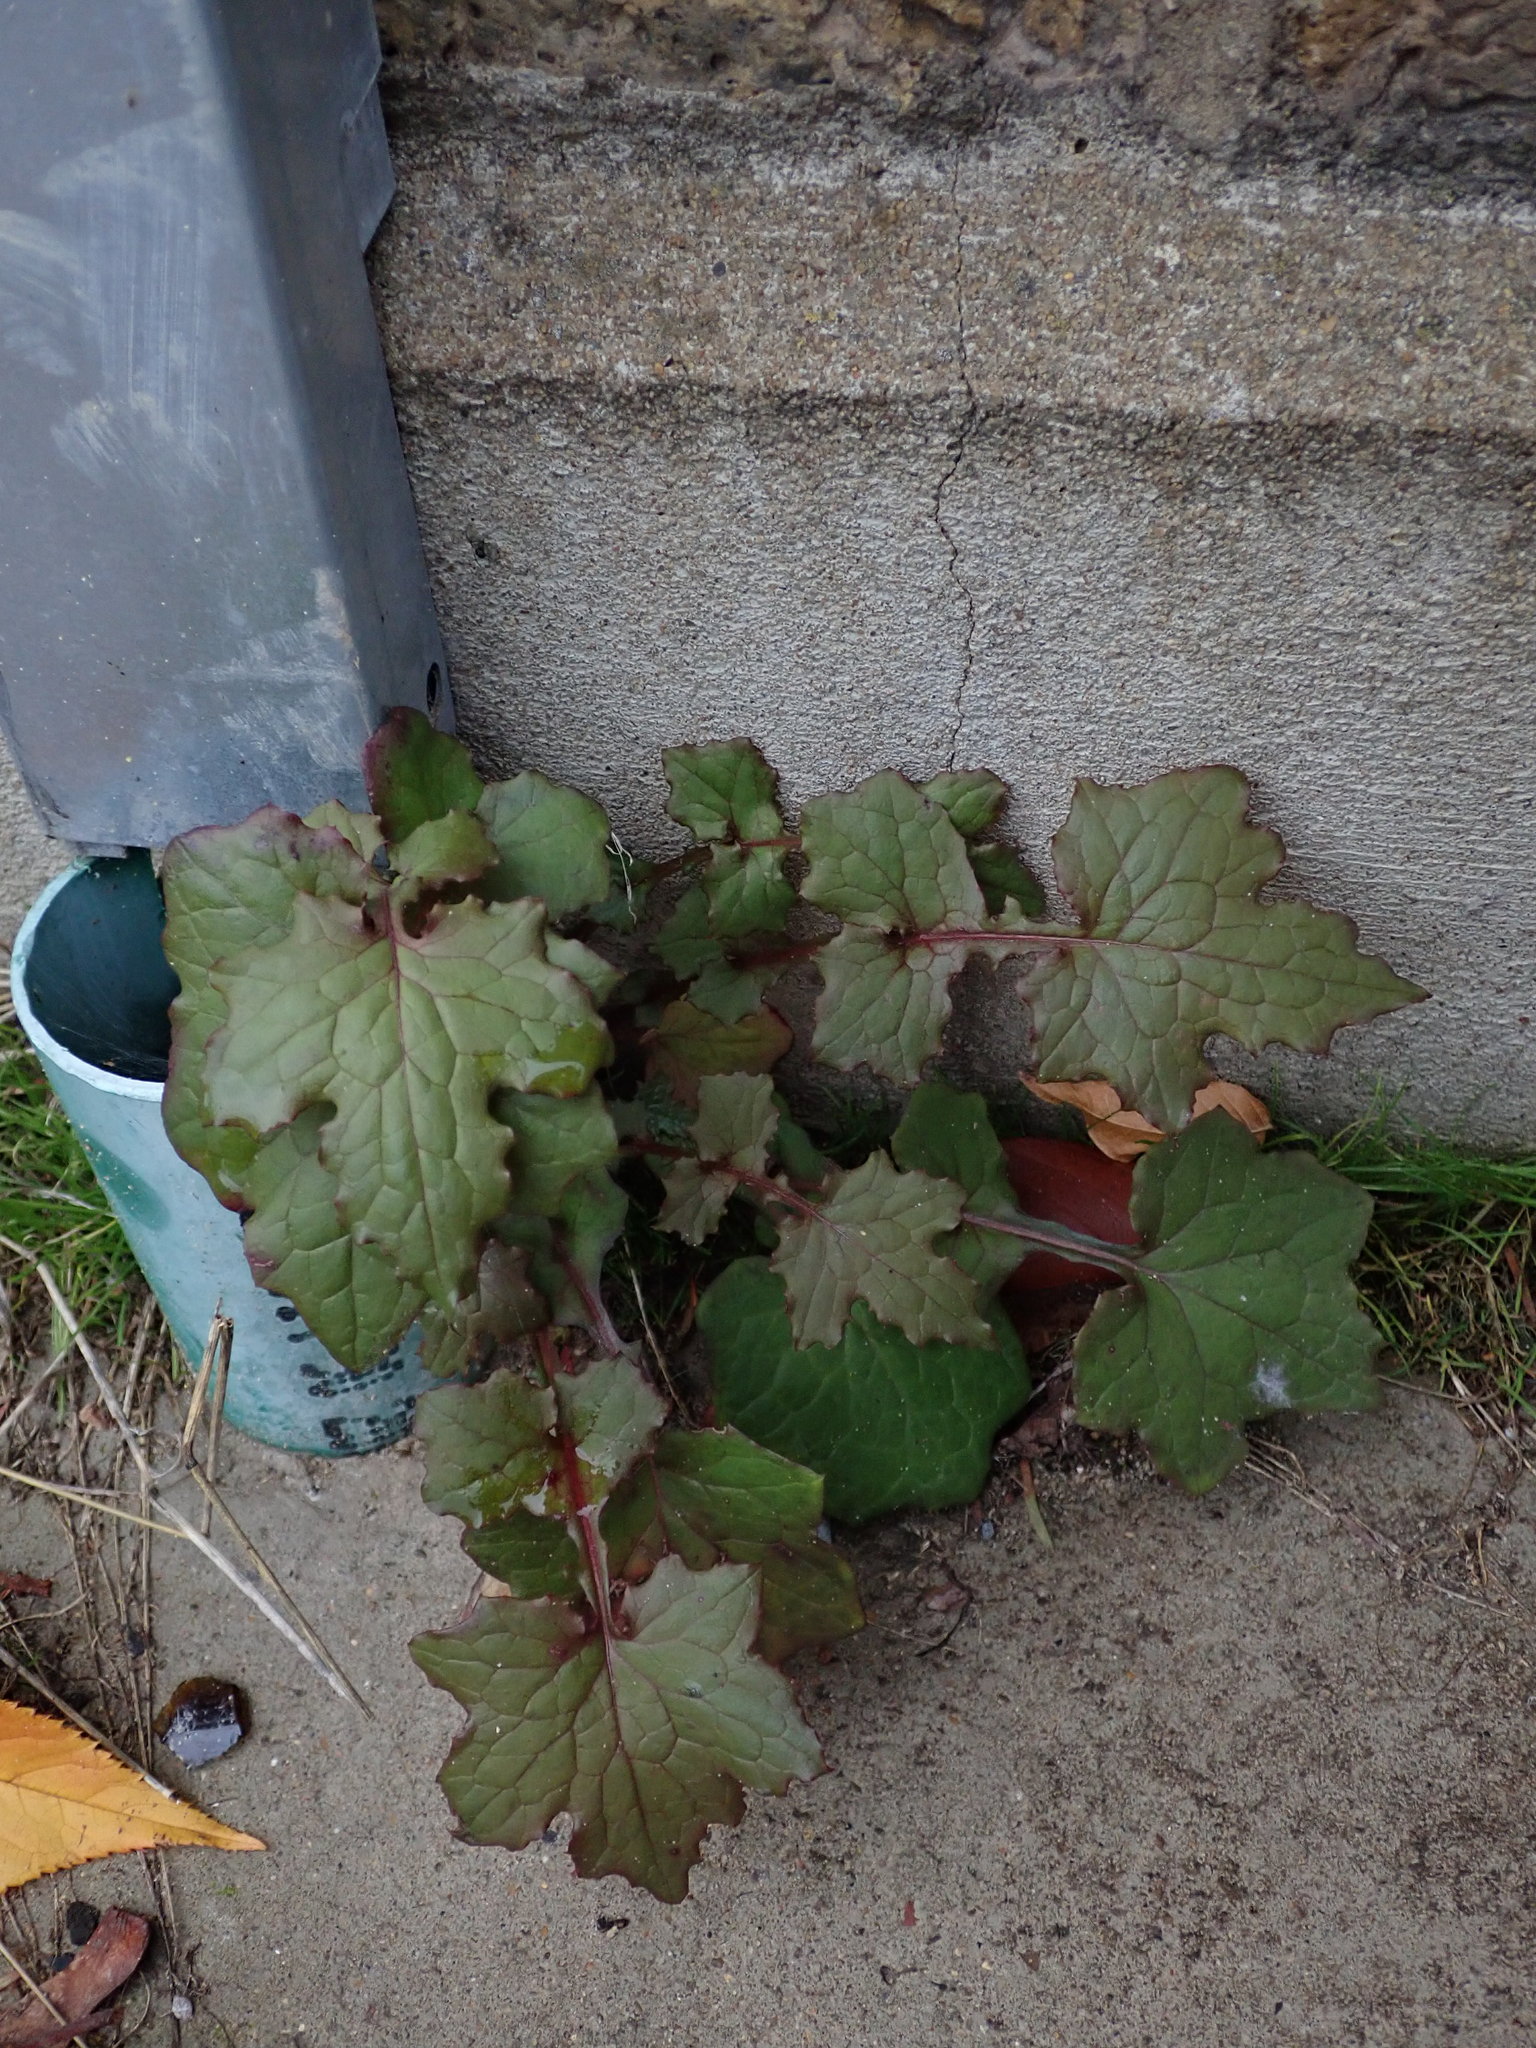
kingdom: Plantae
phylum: Tracheophyta
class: Magnoliopsida
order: Asterales
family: Asteraceae
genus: Mycelis
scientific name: Mycelis muralis
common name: Wall lettuce
